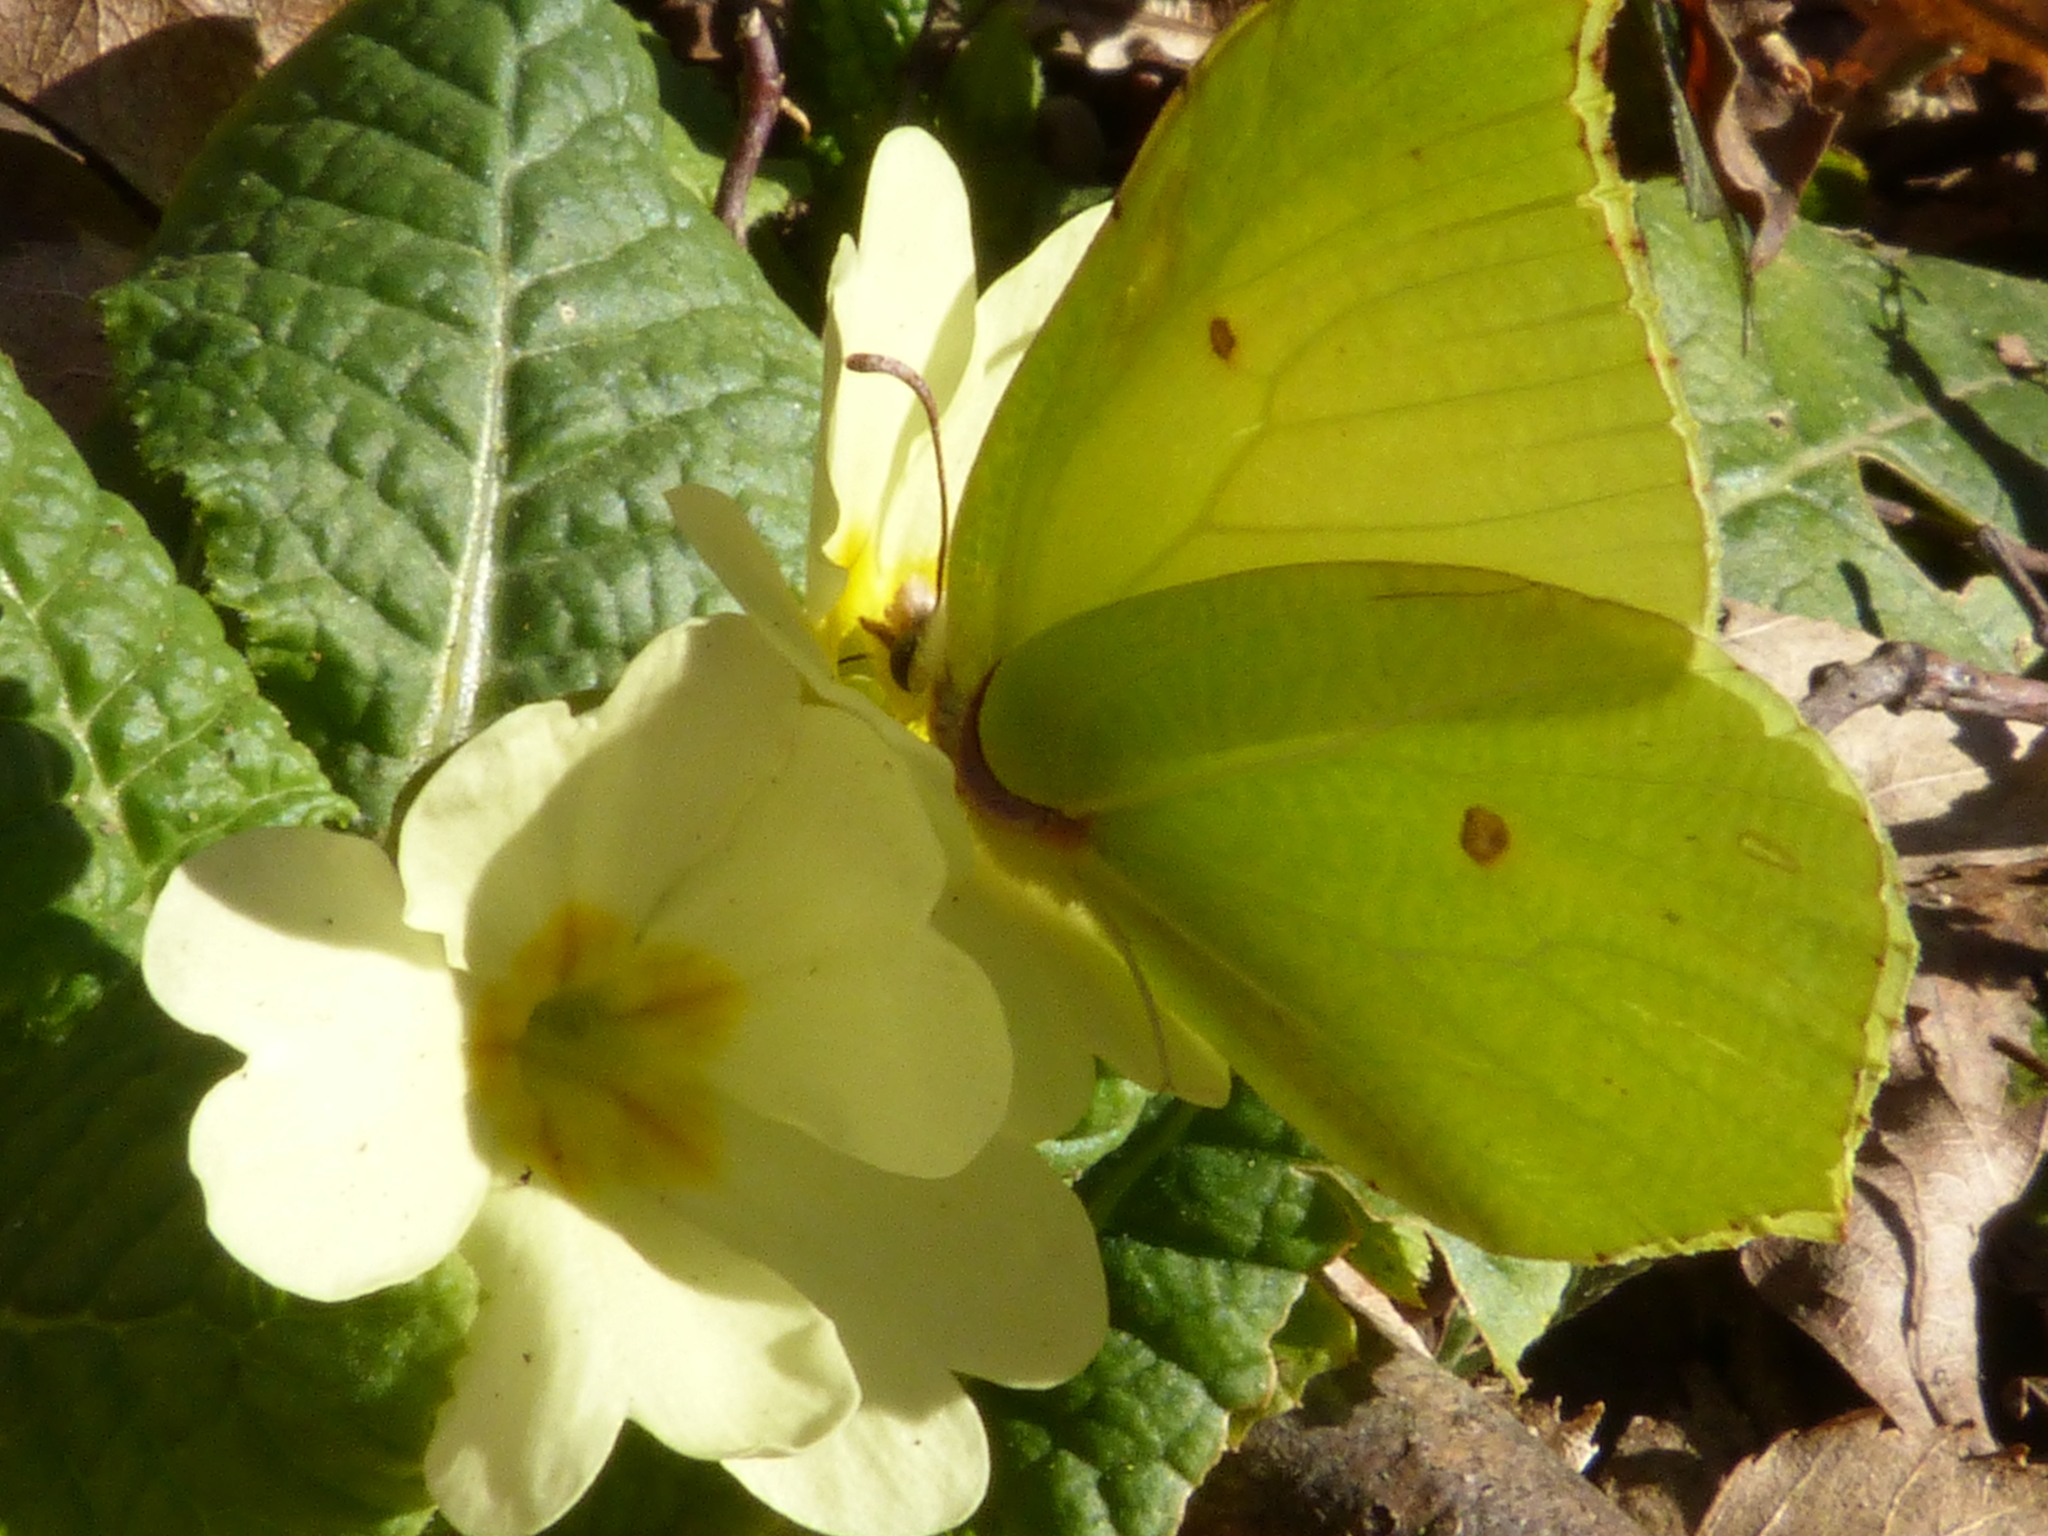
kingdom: Animalia
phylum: Arthropoda
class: Insecta
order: Lepidoptera
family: Pieridae
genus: Gonepteryx
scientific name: Gonepteryx rhamni
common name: Brimstone
